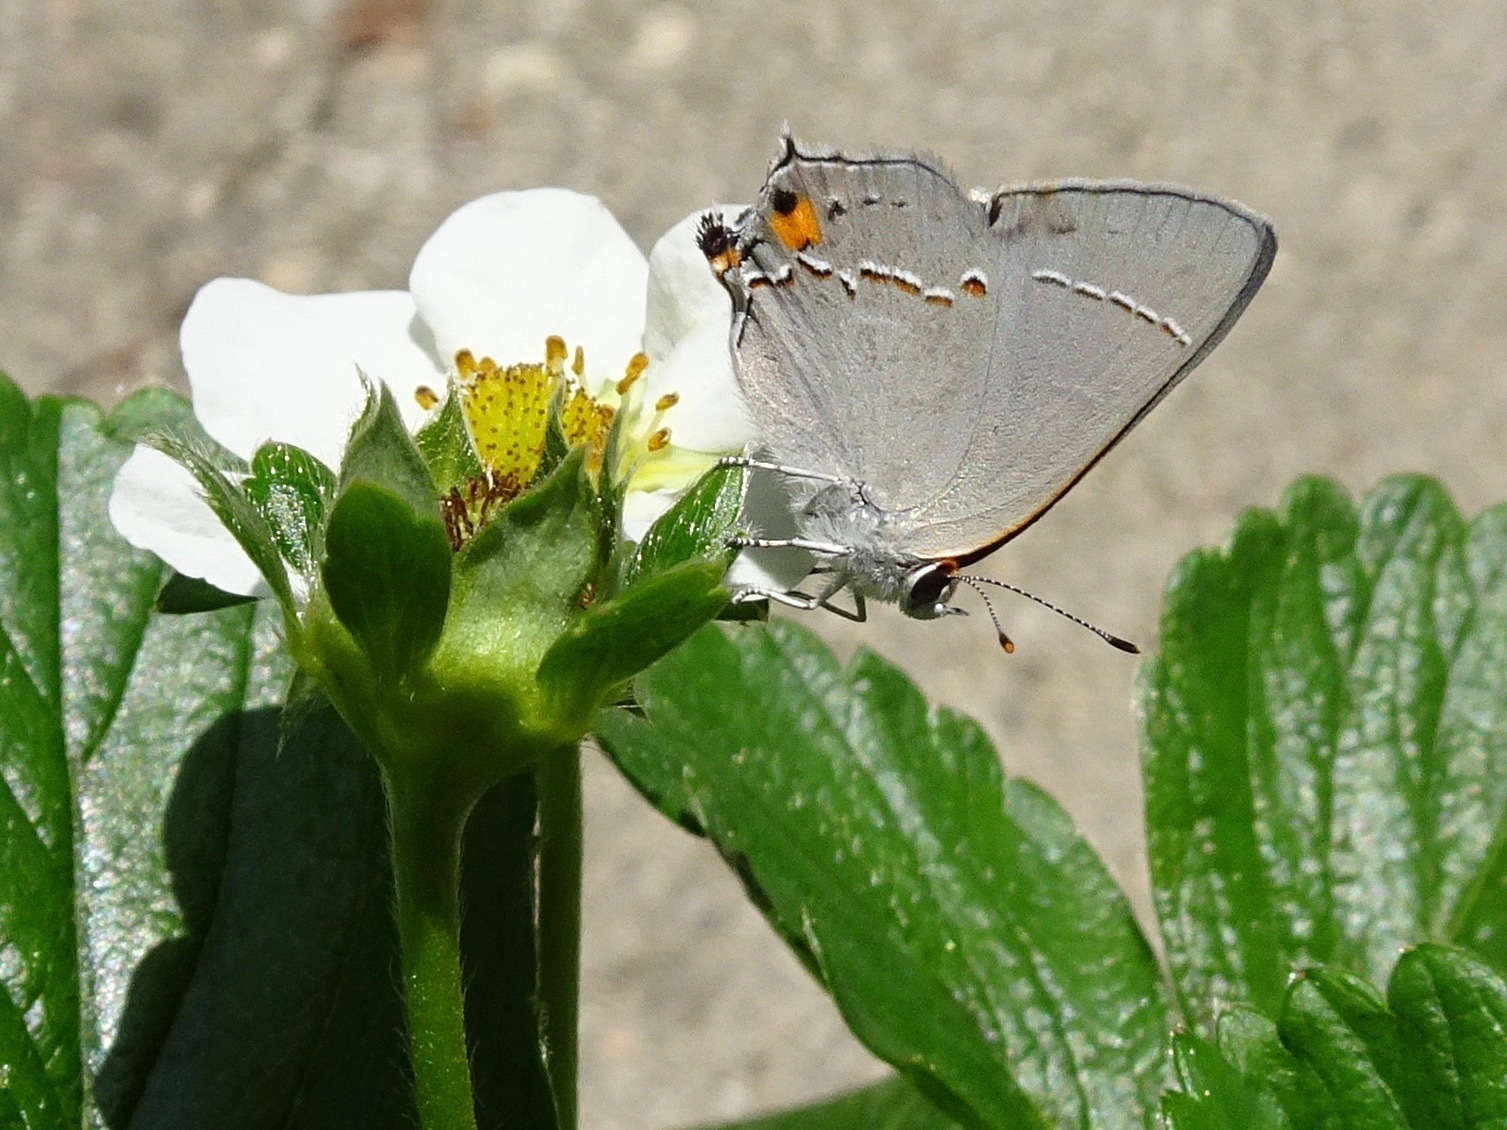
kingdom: Animalia
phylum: Arthropoda
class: Insecta
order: Lepidoptera
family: Lycaenidae
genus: Strymon
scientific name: Strymon melinus
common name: Gray hairstreak
